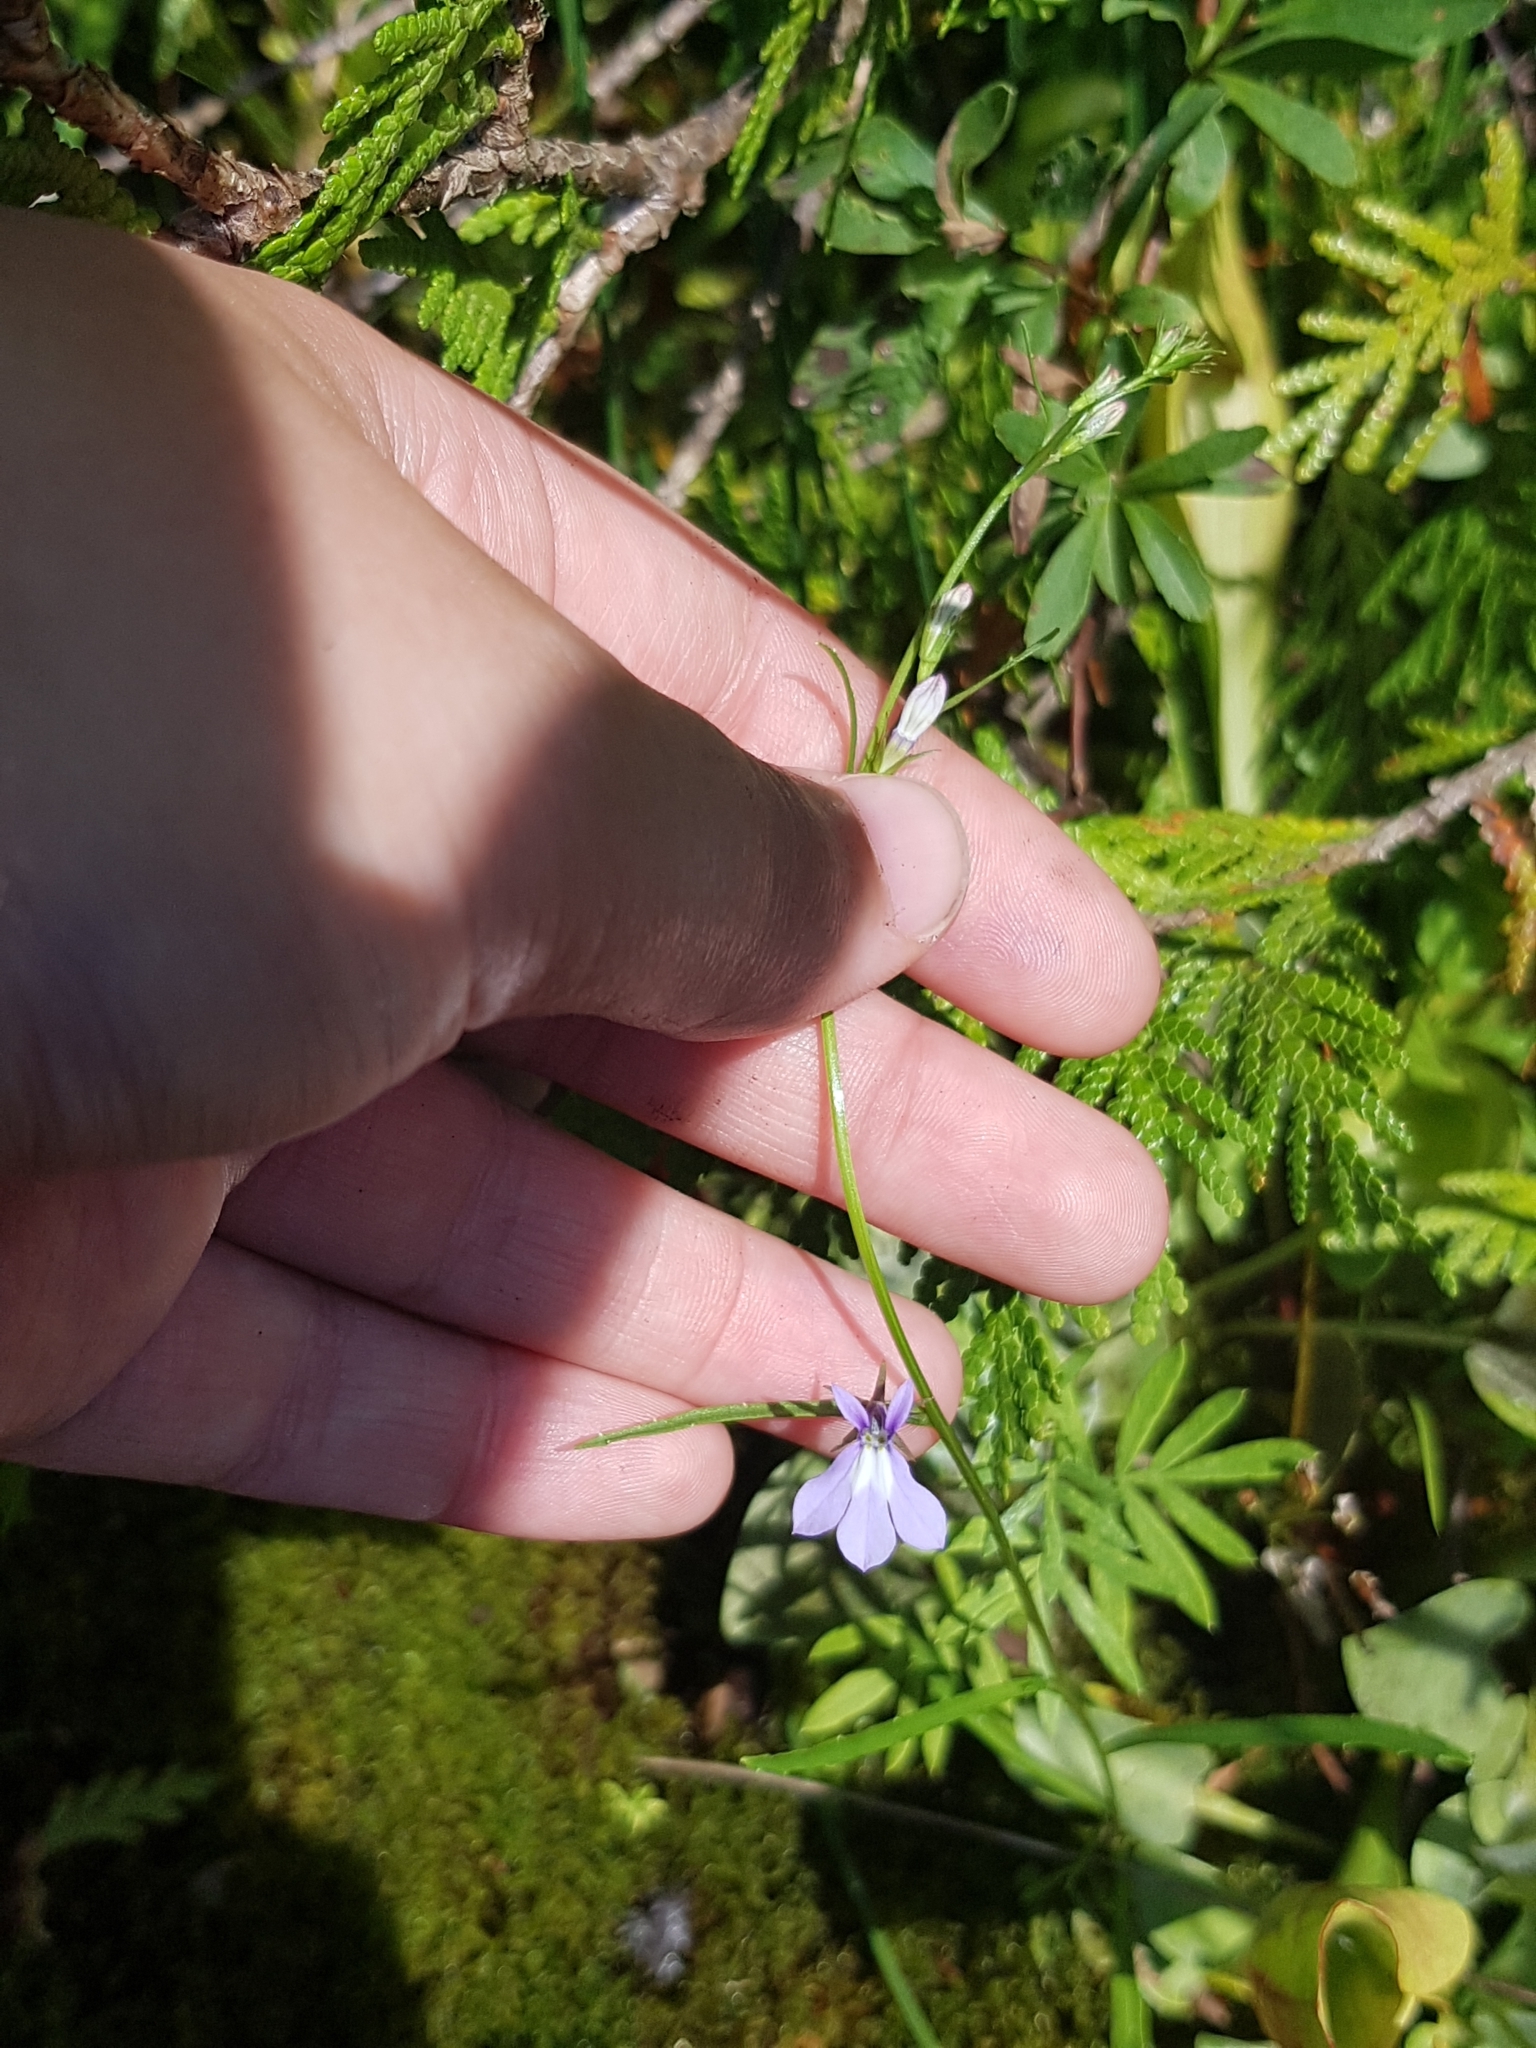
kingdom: Plantae
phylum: Tracheophyta
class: Magnoliopsida
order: Asterales
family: Campanulaceae
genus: Lobelia
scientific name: Lobelia kalmii
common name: Kalm's lobelia
